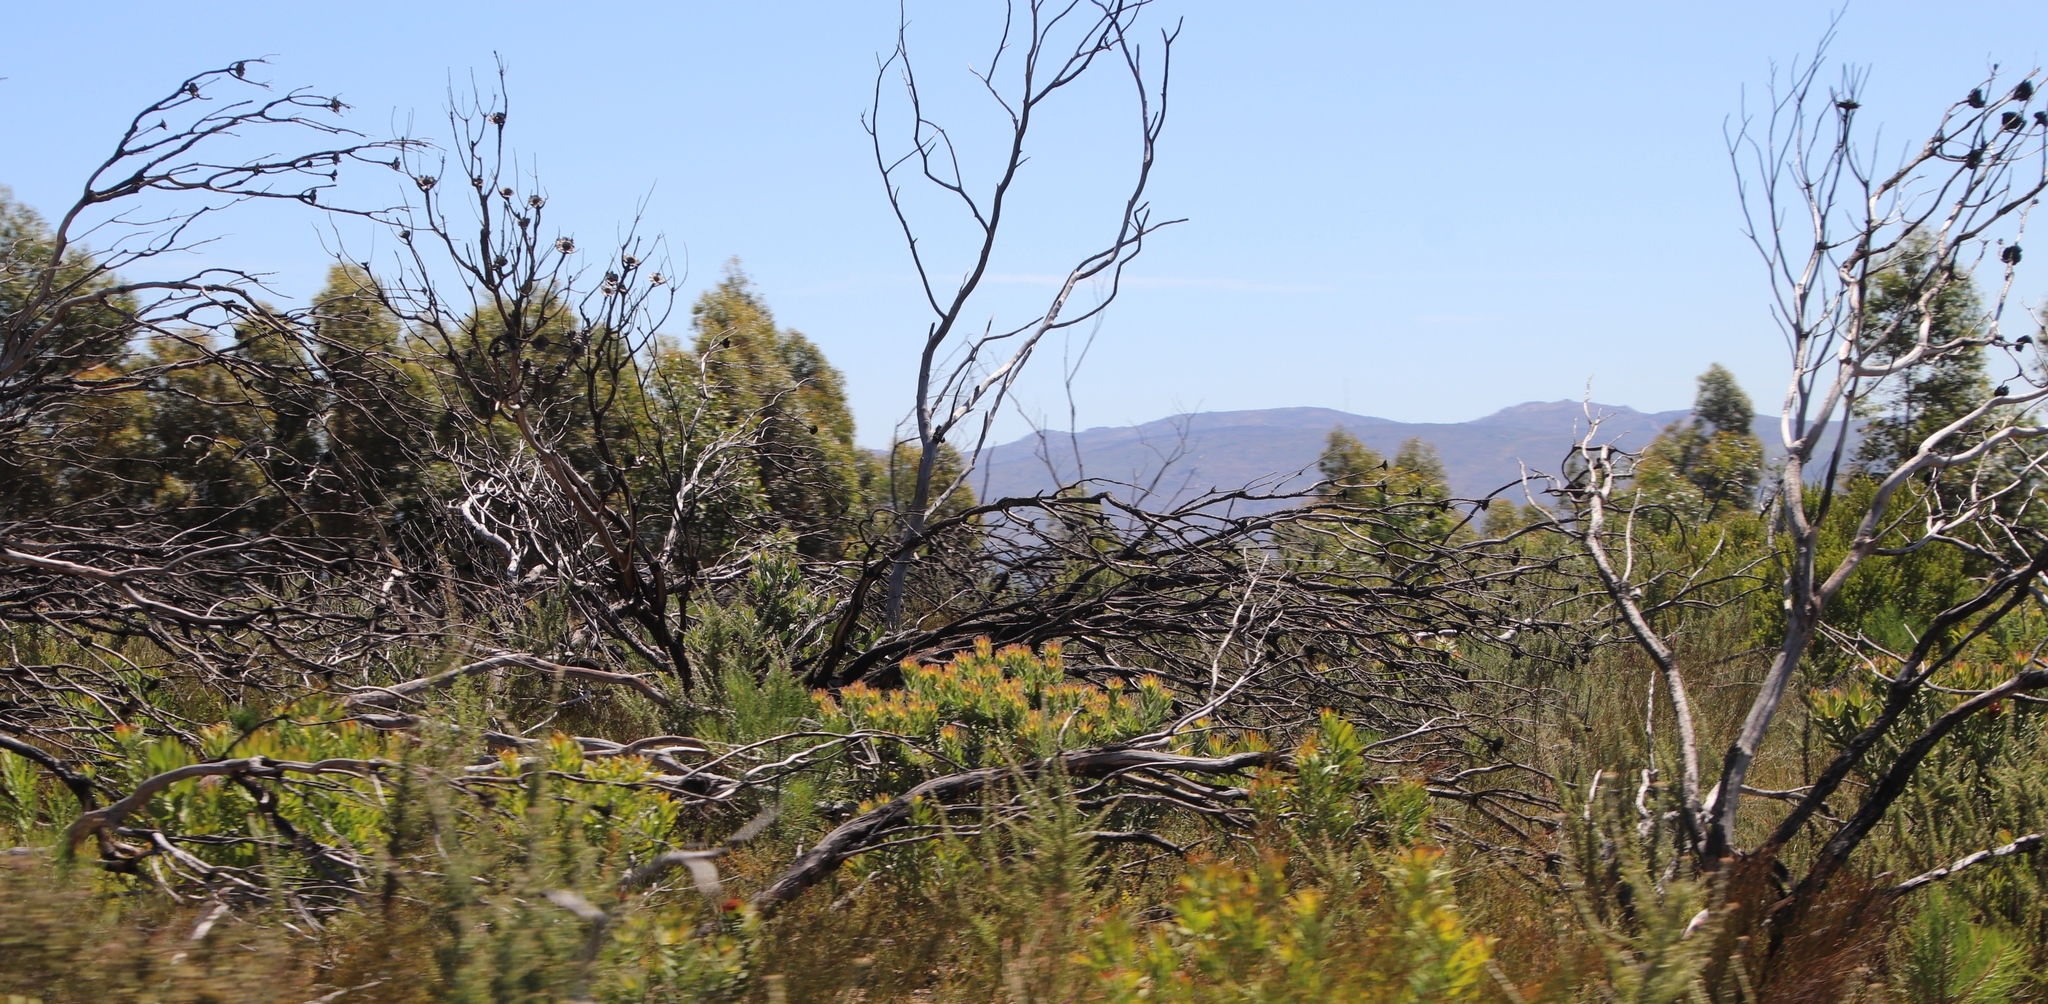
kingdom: Plantae
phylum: Tracheophyta
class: Magnoliopsida
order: Proteales
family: Proteaceae
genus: Leucadendron
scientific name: Leucadendron daphnoides
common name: Du toit's kloof conebush
